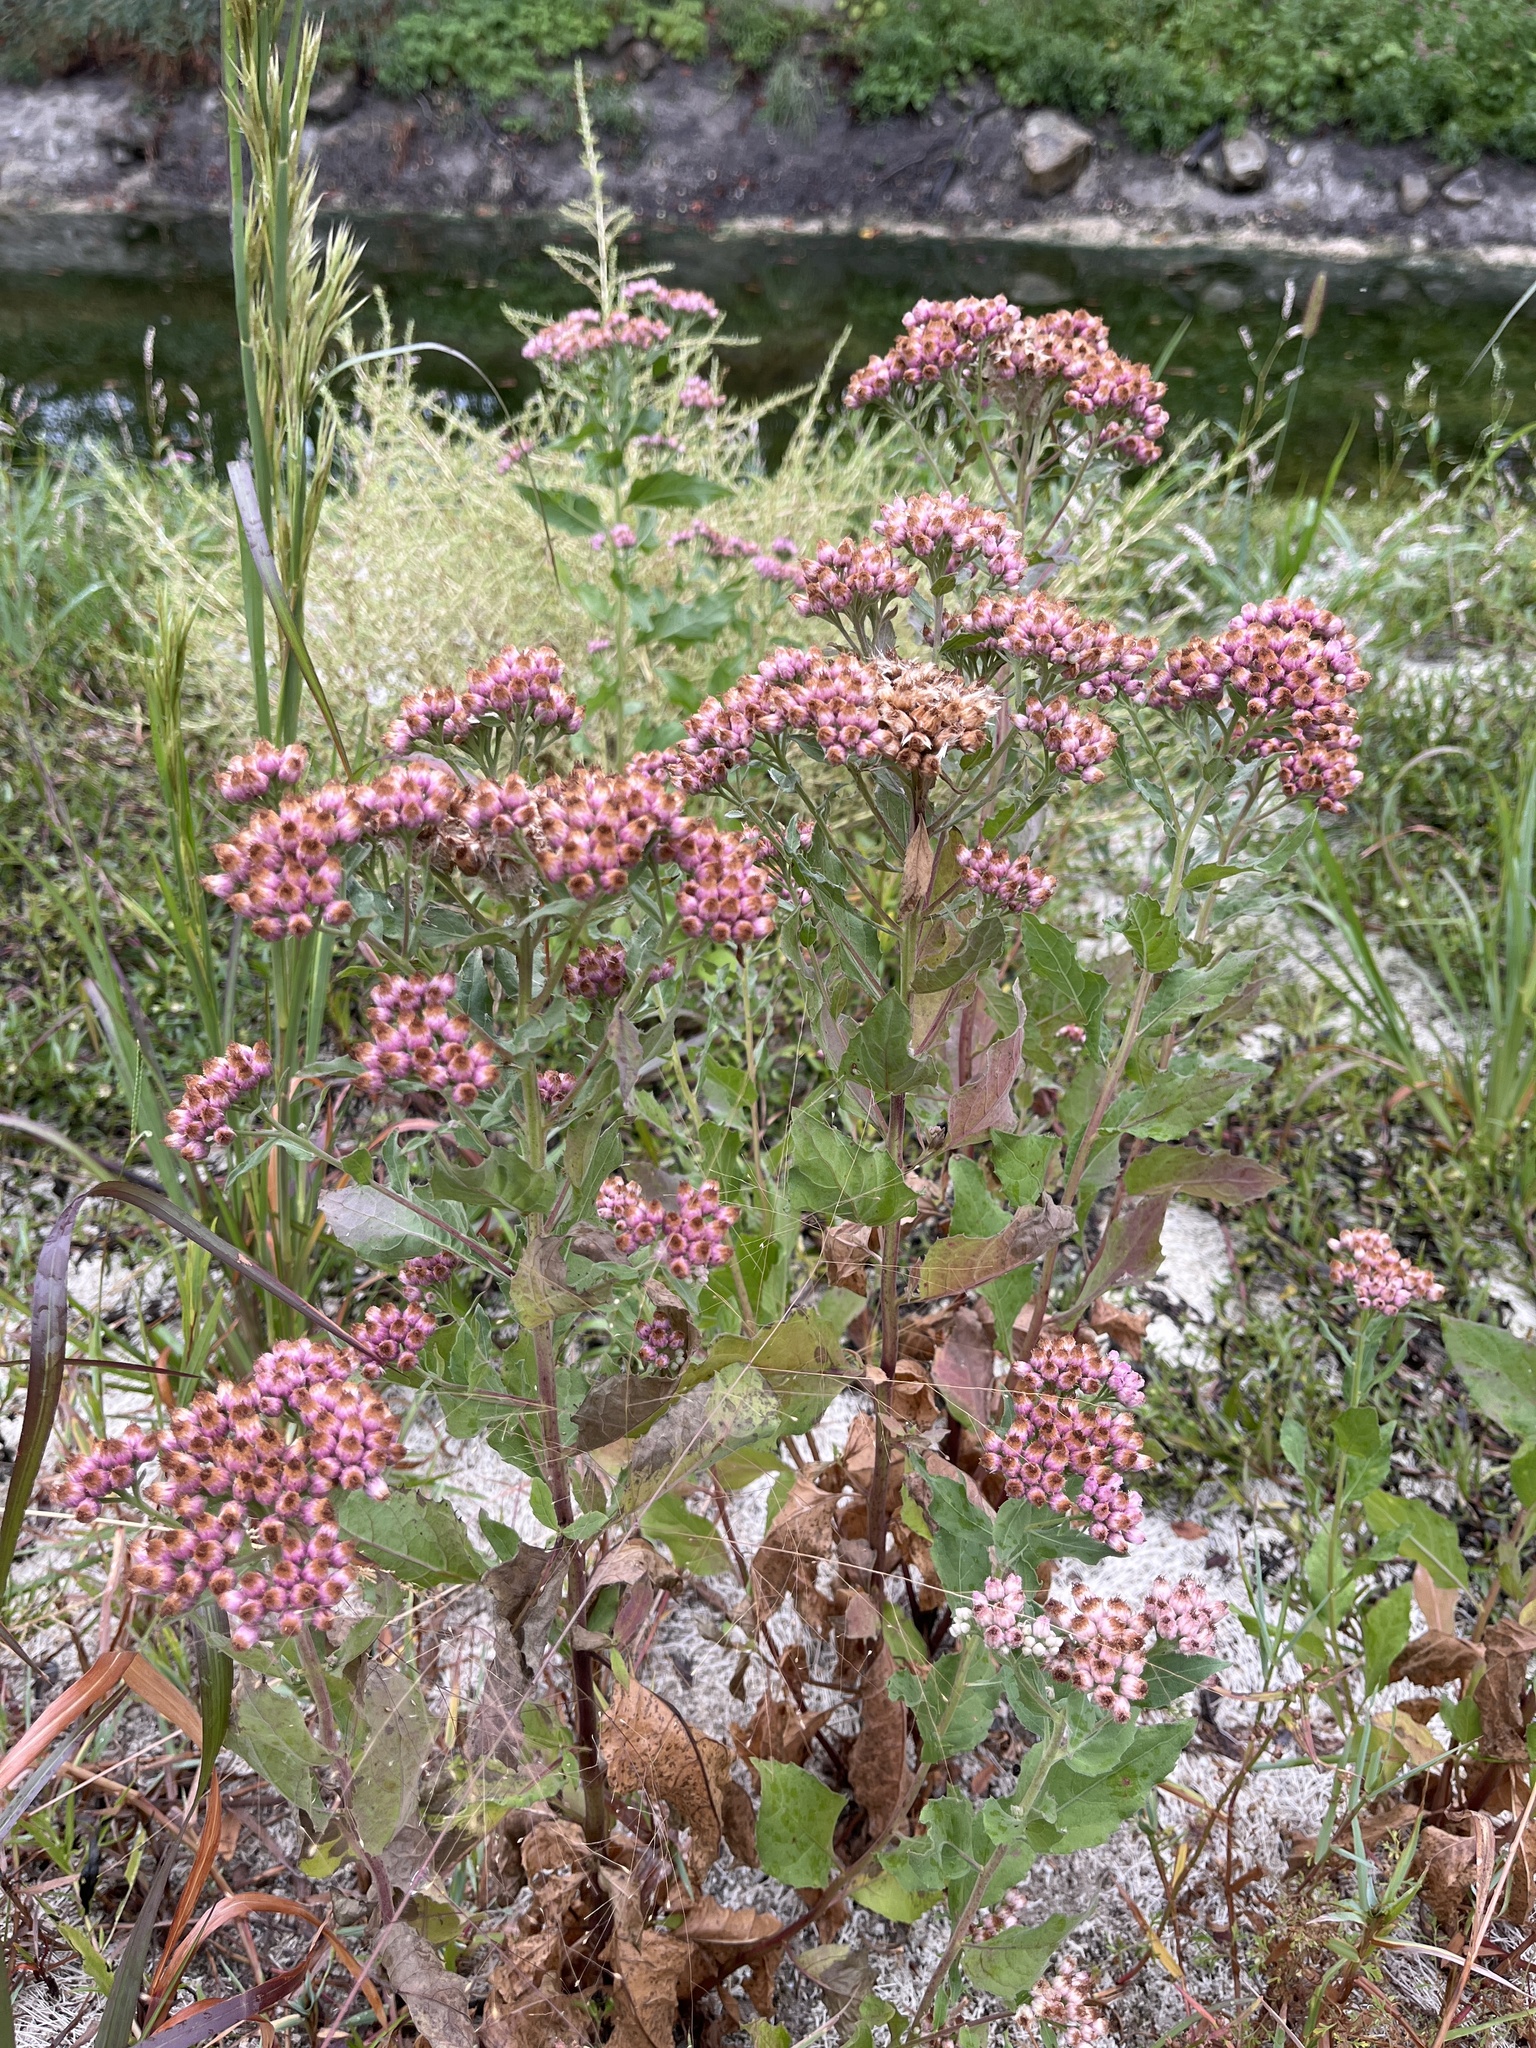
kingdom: Plantae
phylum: Tracheophyta
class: Magnoliopsida
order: Asterales
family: Asteraceae
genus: Pluchea
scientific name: Pluchea odorata
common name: Saltmarsh fleabane
